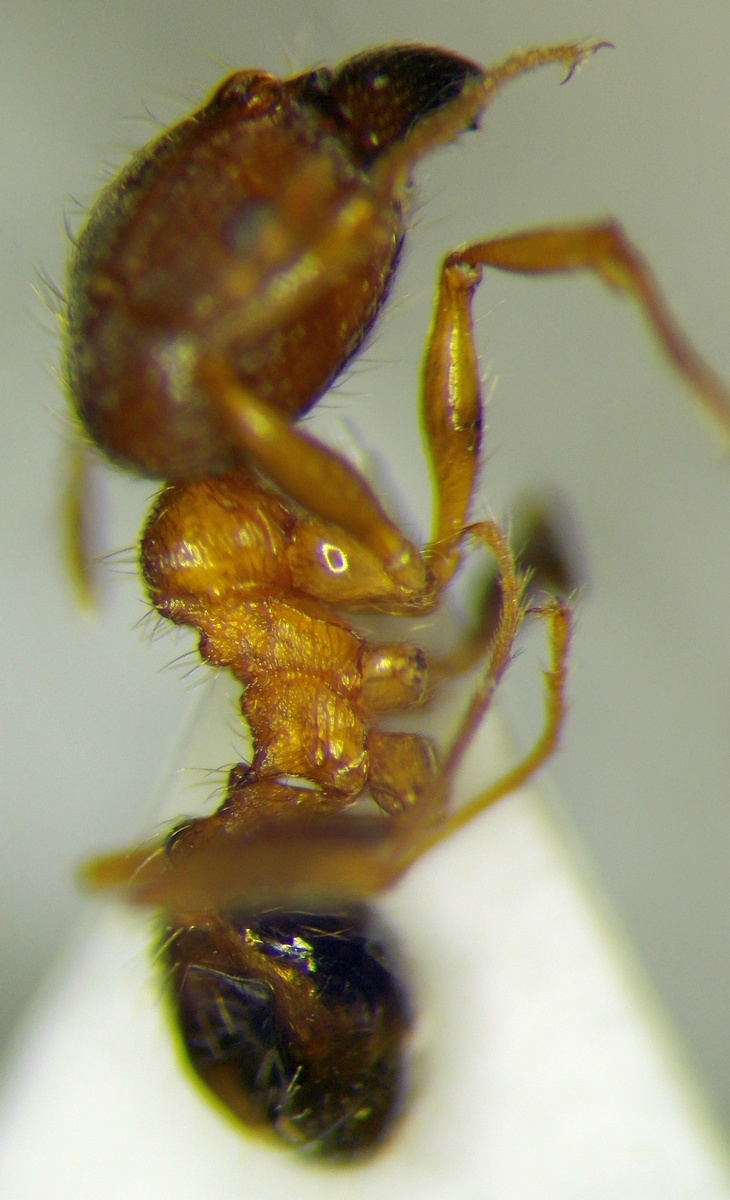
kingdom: Animalia
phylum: Arthropoda
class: Insecta
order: Hymenoptera
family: Formicidae
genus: Pheidole
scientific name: Pheidole indica
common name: Big-headed ant
